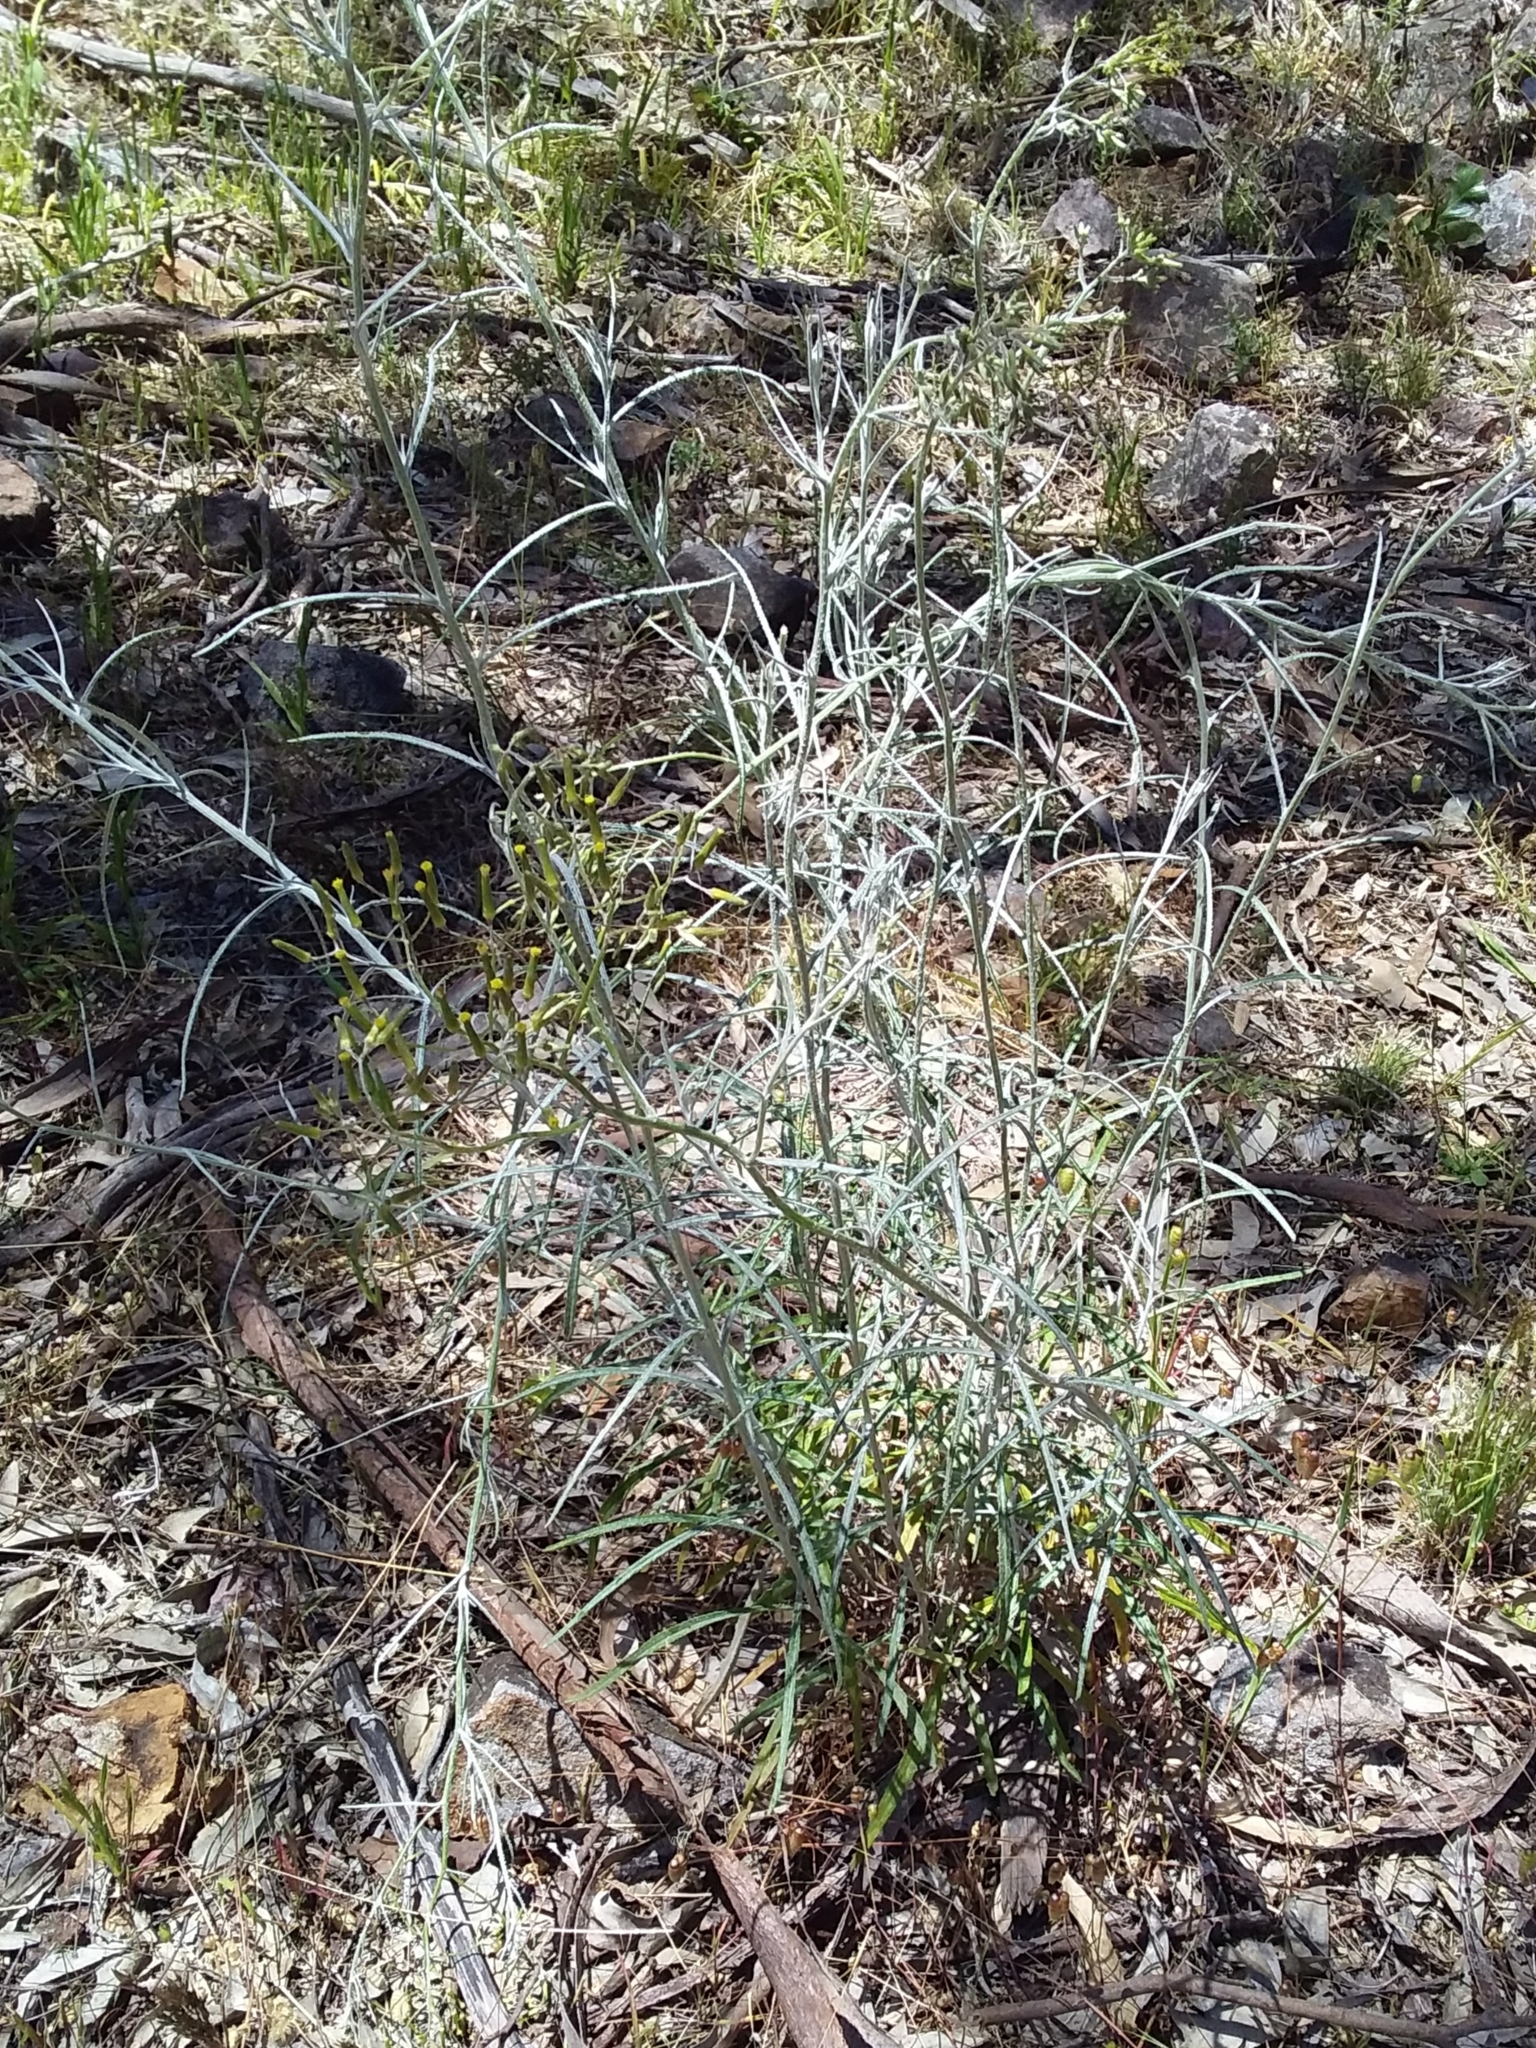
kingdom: Plantae
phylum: Tracheophyta
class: Magnoliopsida
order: Asterales
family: Asteraceae
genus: Senecio
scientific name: Senecio quadridentatus
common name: Cotton fireweed
